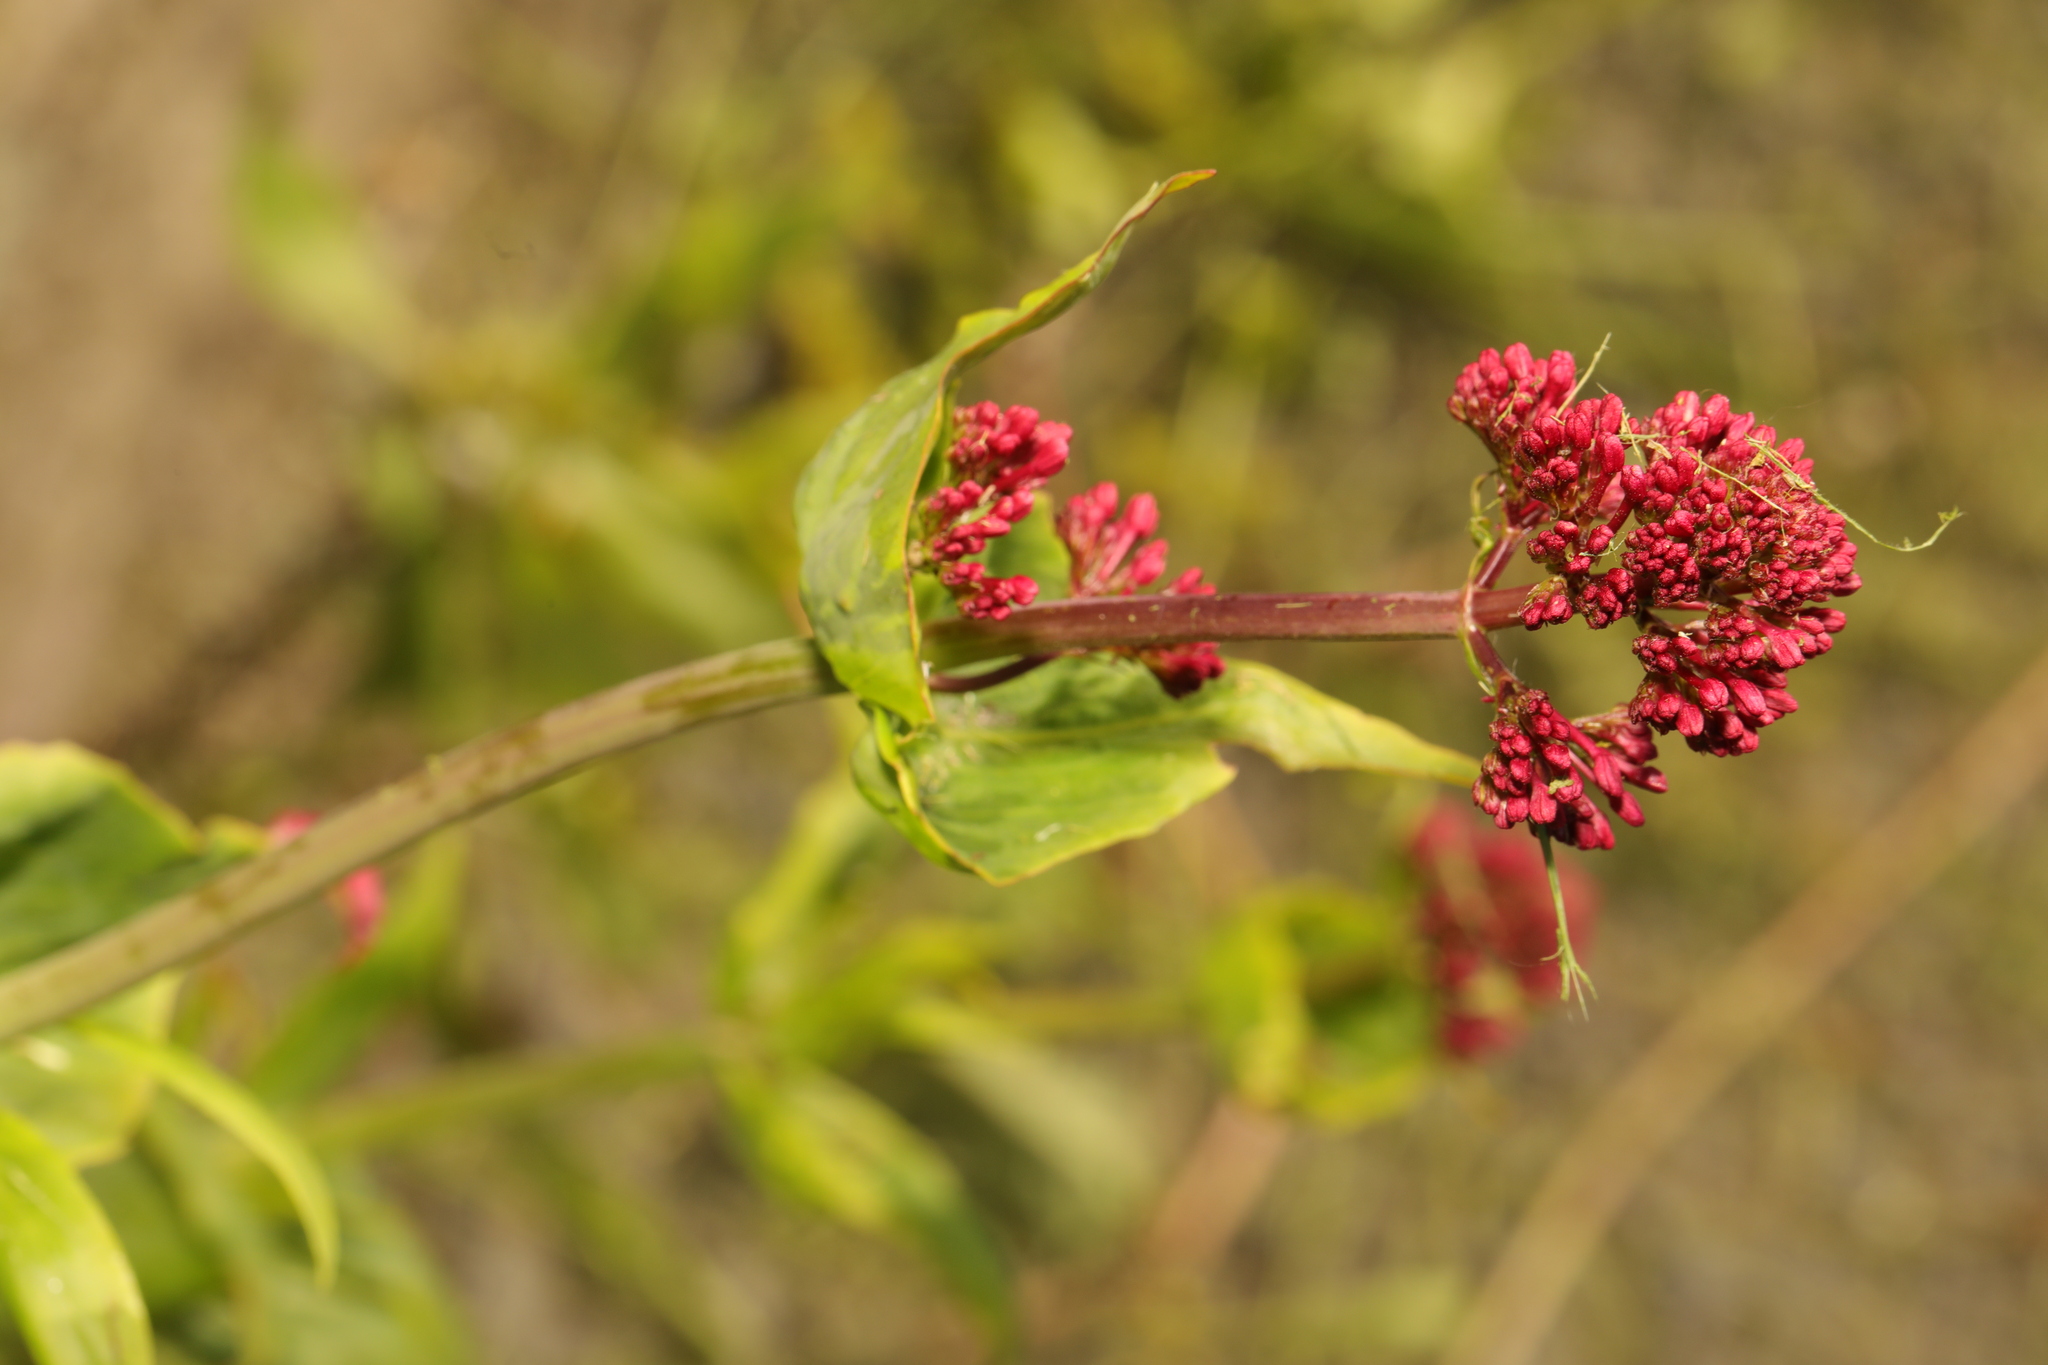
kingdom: Plantae
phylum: Tracheophyta
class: Magnoliopsida
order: Dipsacales
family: Caprifoliaceae
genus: Centranthus
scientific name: Centranthus ruber
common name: Red valerian
